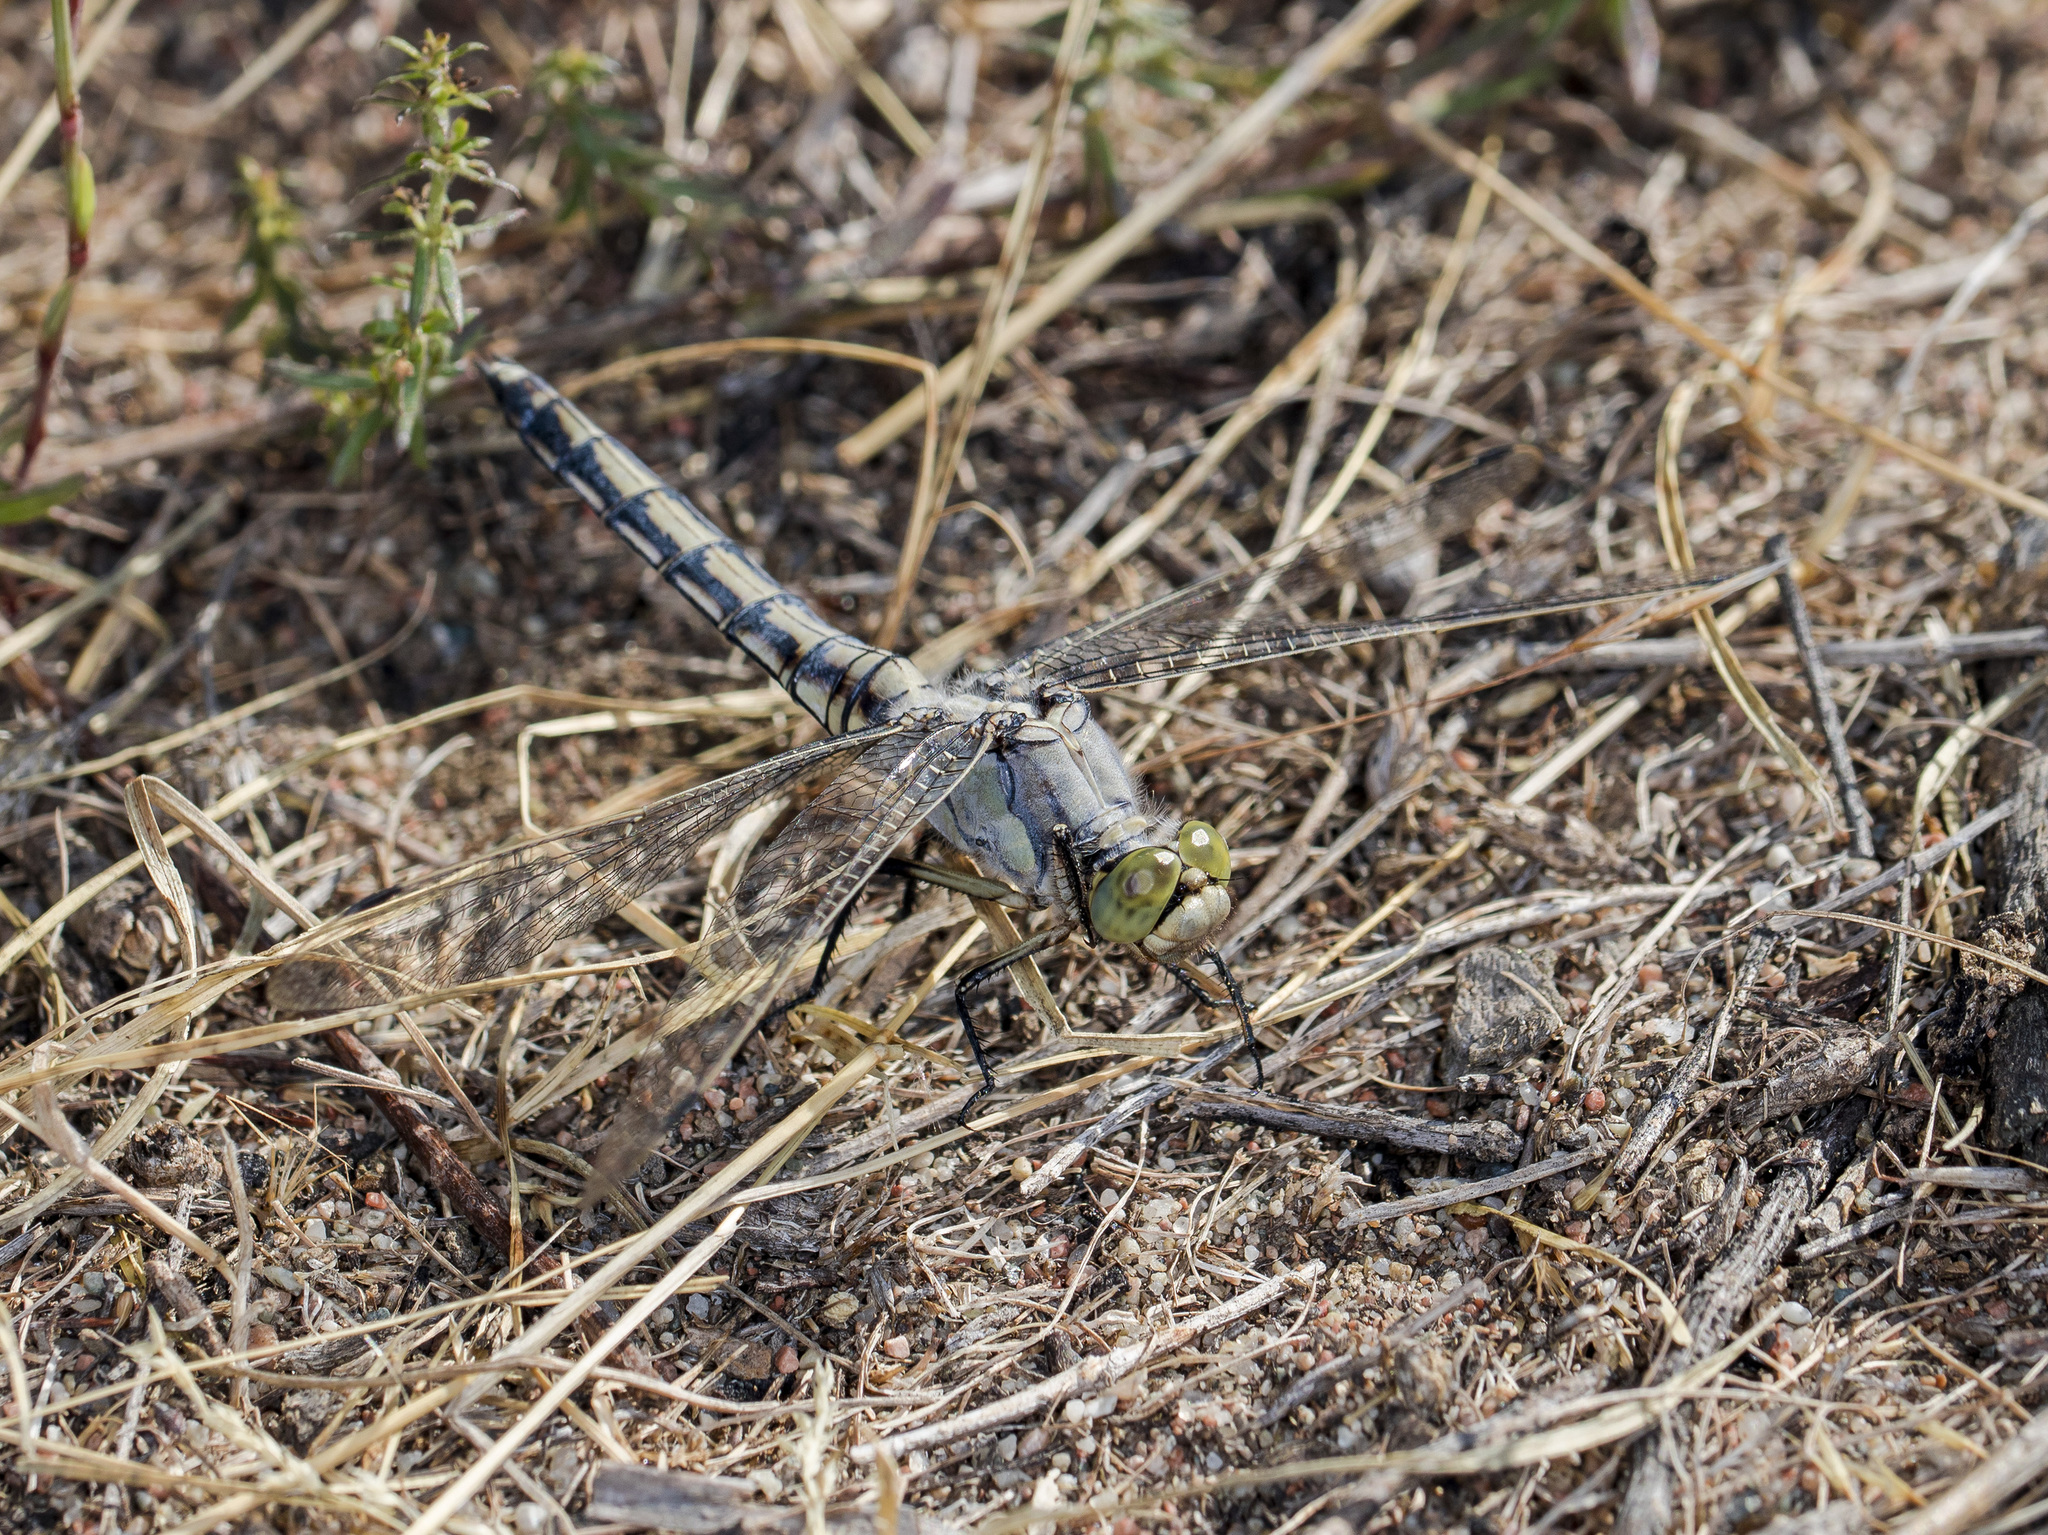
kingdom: Animalia
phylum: Arthropoda
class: Insecta
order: Odonata
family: Libellulidae
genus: Orthetrum
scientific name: Orthetrum cancellatum
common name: Black-tailed skimmer
